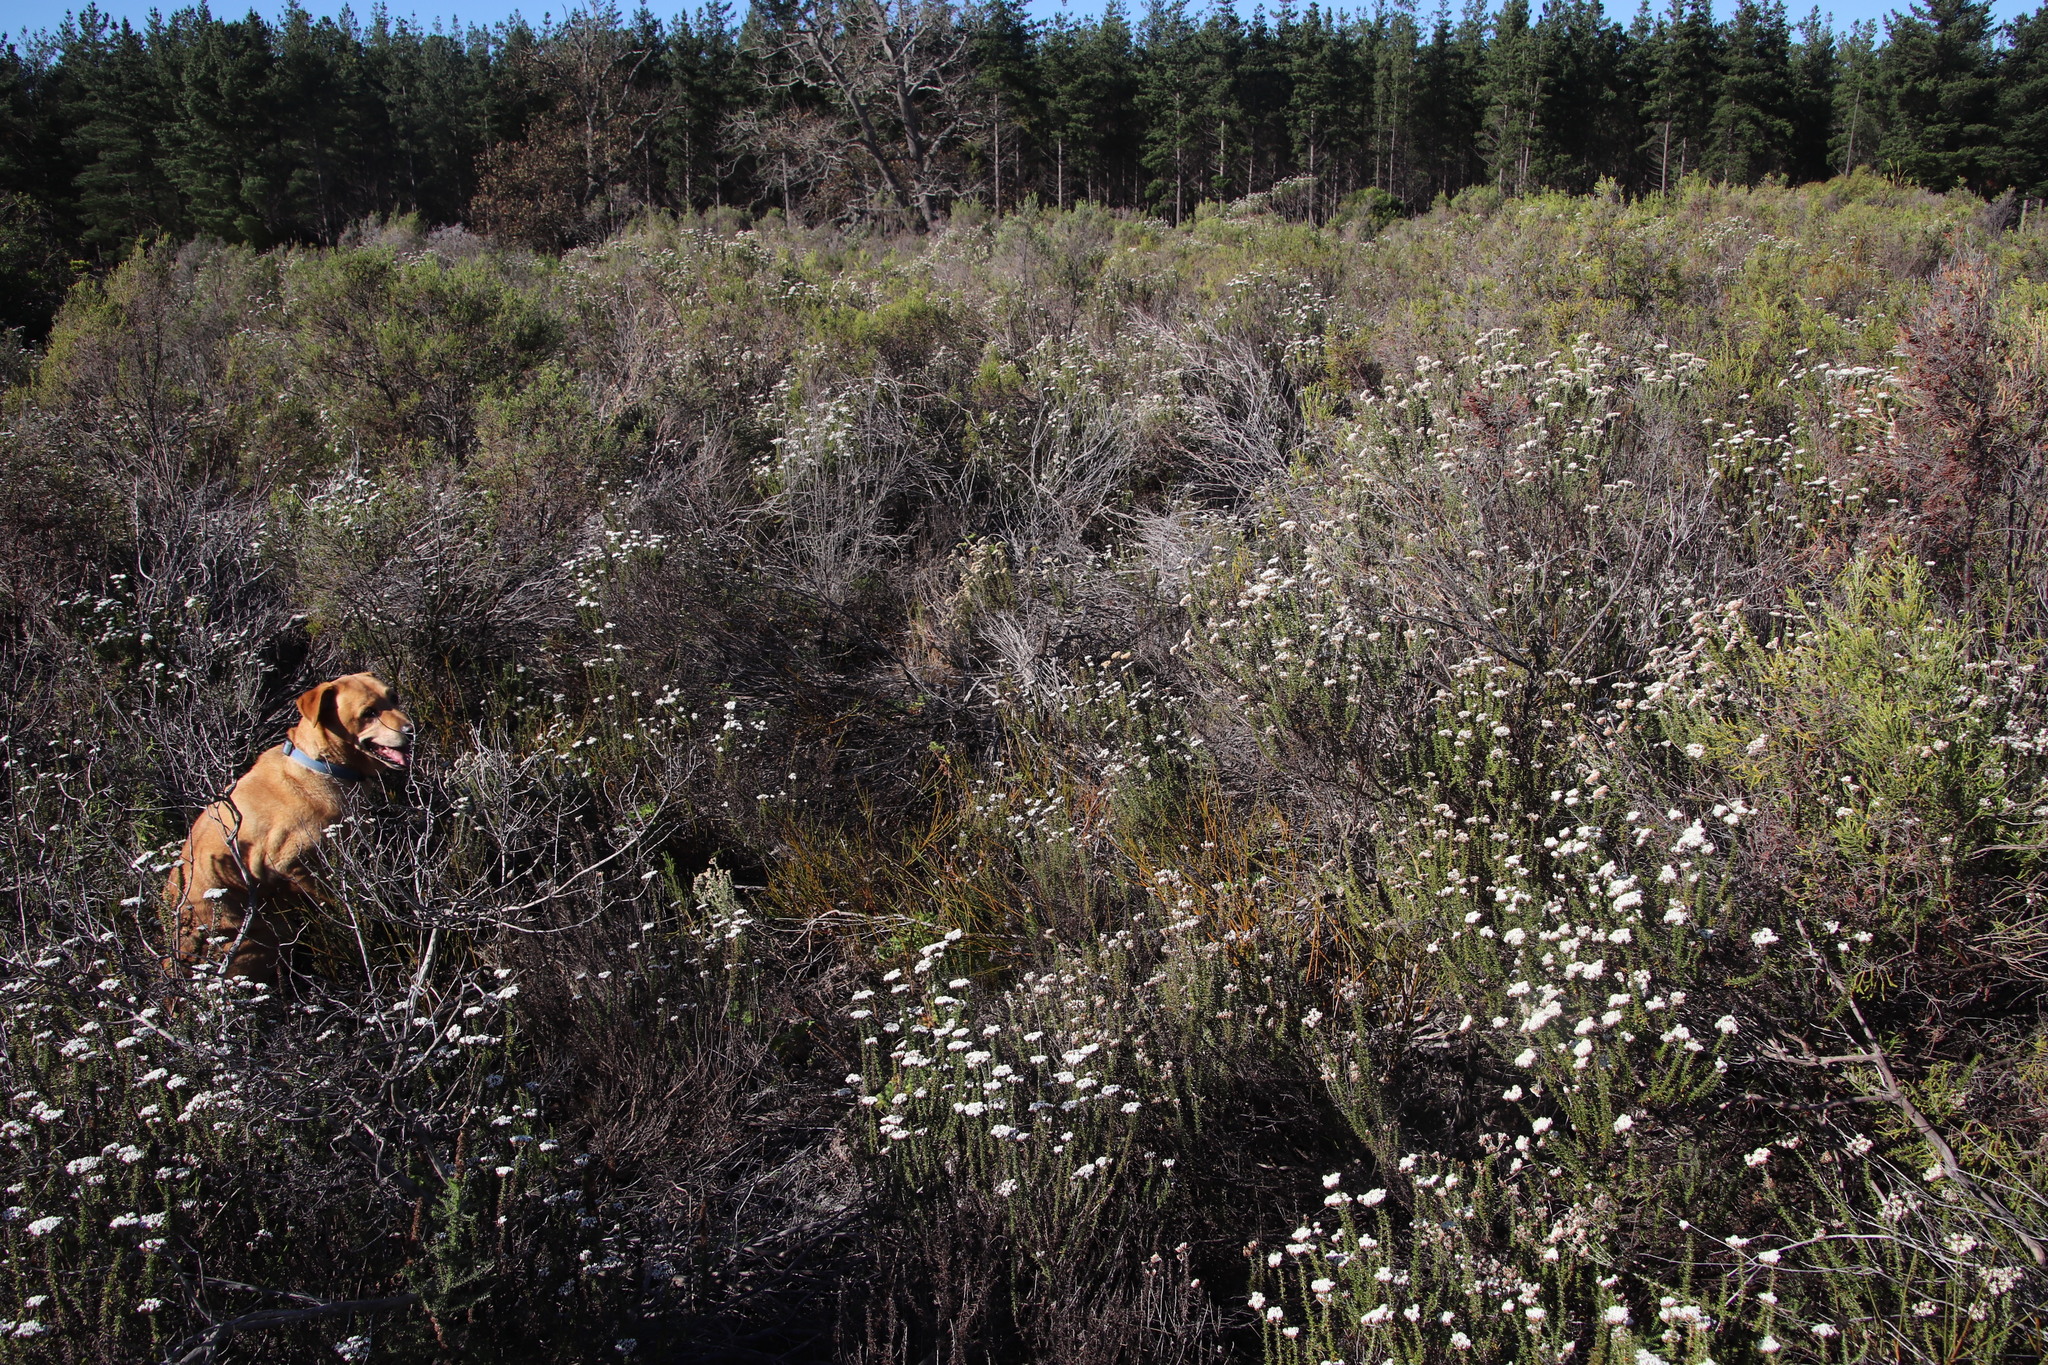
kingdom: Plantae
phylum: Tracheophyta
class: Magnoliopsida
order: Santalales
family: Thesiaceae
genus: Thesium
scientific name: Thesium aggregatum
